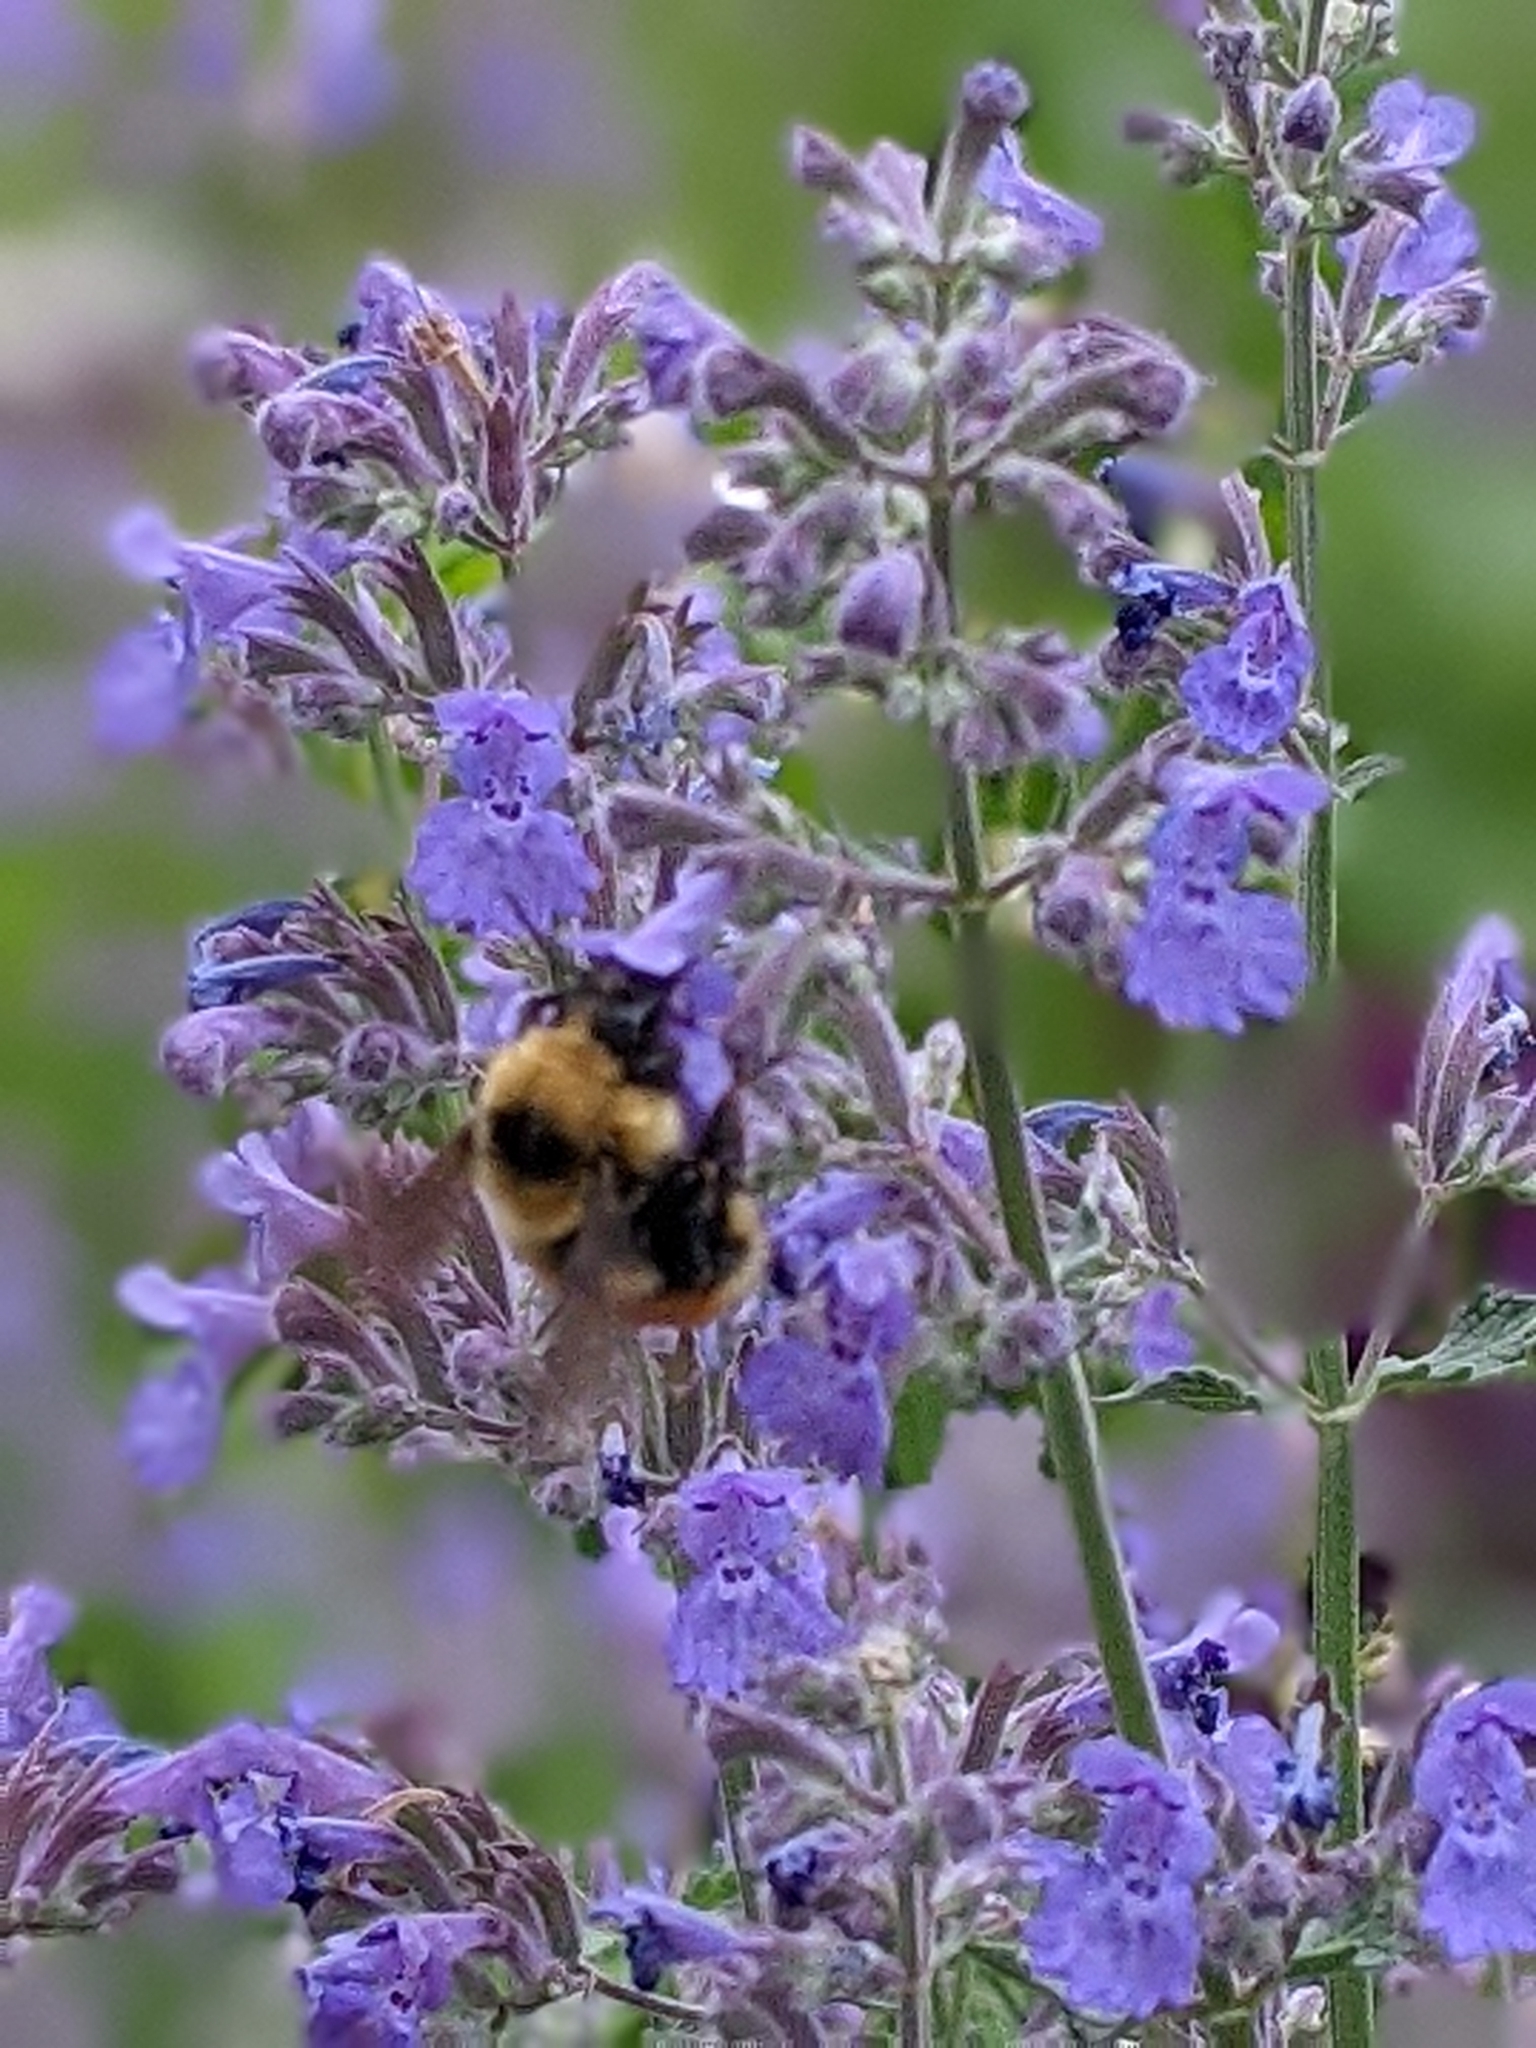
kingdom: Animalia
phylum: Arthropoda
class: Insecta
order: Hymenoptera
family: Apidae
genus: Bombus
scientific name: Bombus rufocinctus
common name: Red-belted bumble bee
